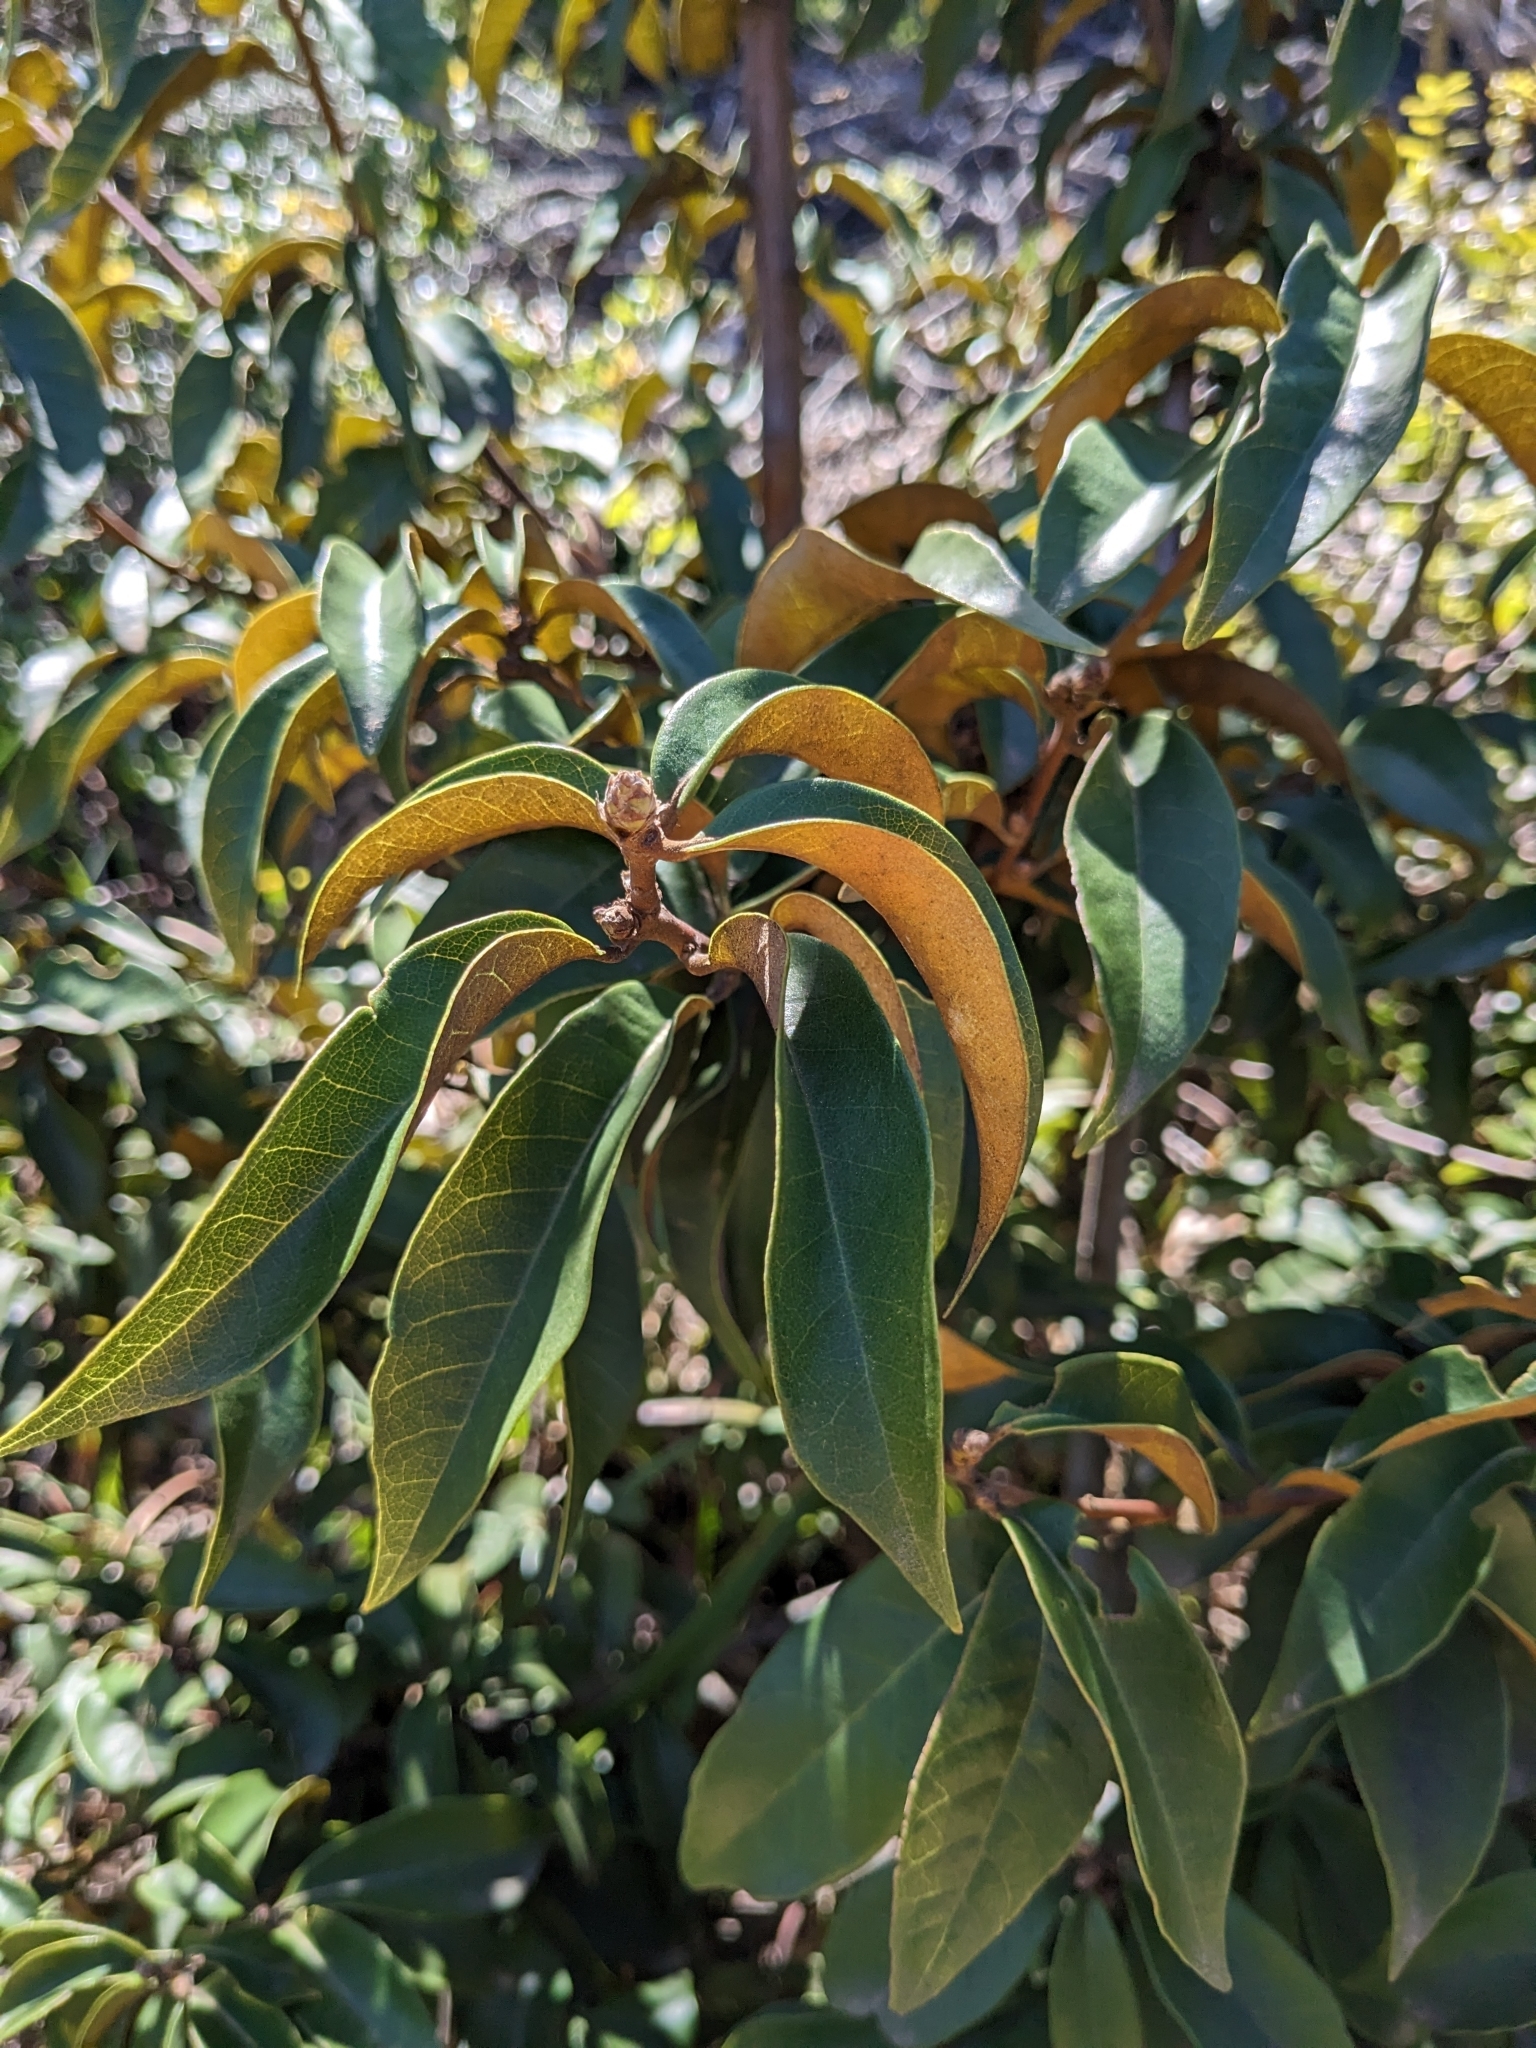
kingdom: Plantae
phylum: Tracheophyta
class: Magnoliopsida
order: Fagales
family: Fagaceae
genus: Chrysolepis
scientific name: Chrysolepis chrysophylla
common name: Giant chinquapin
